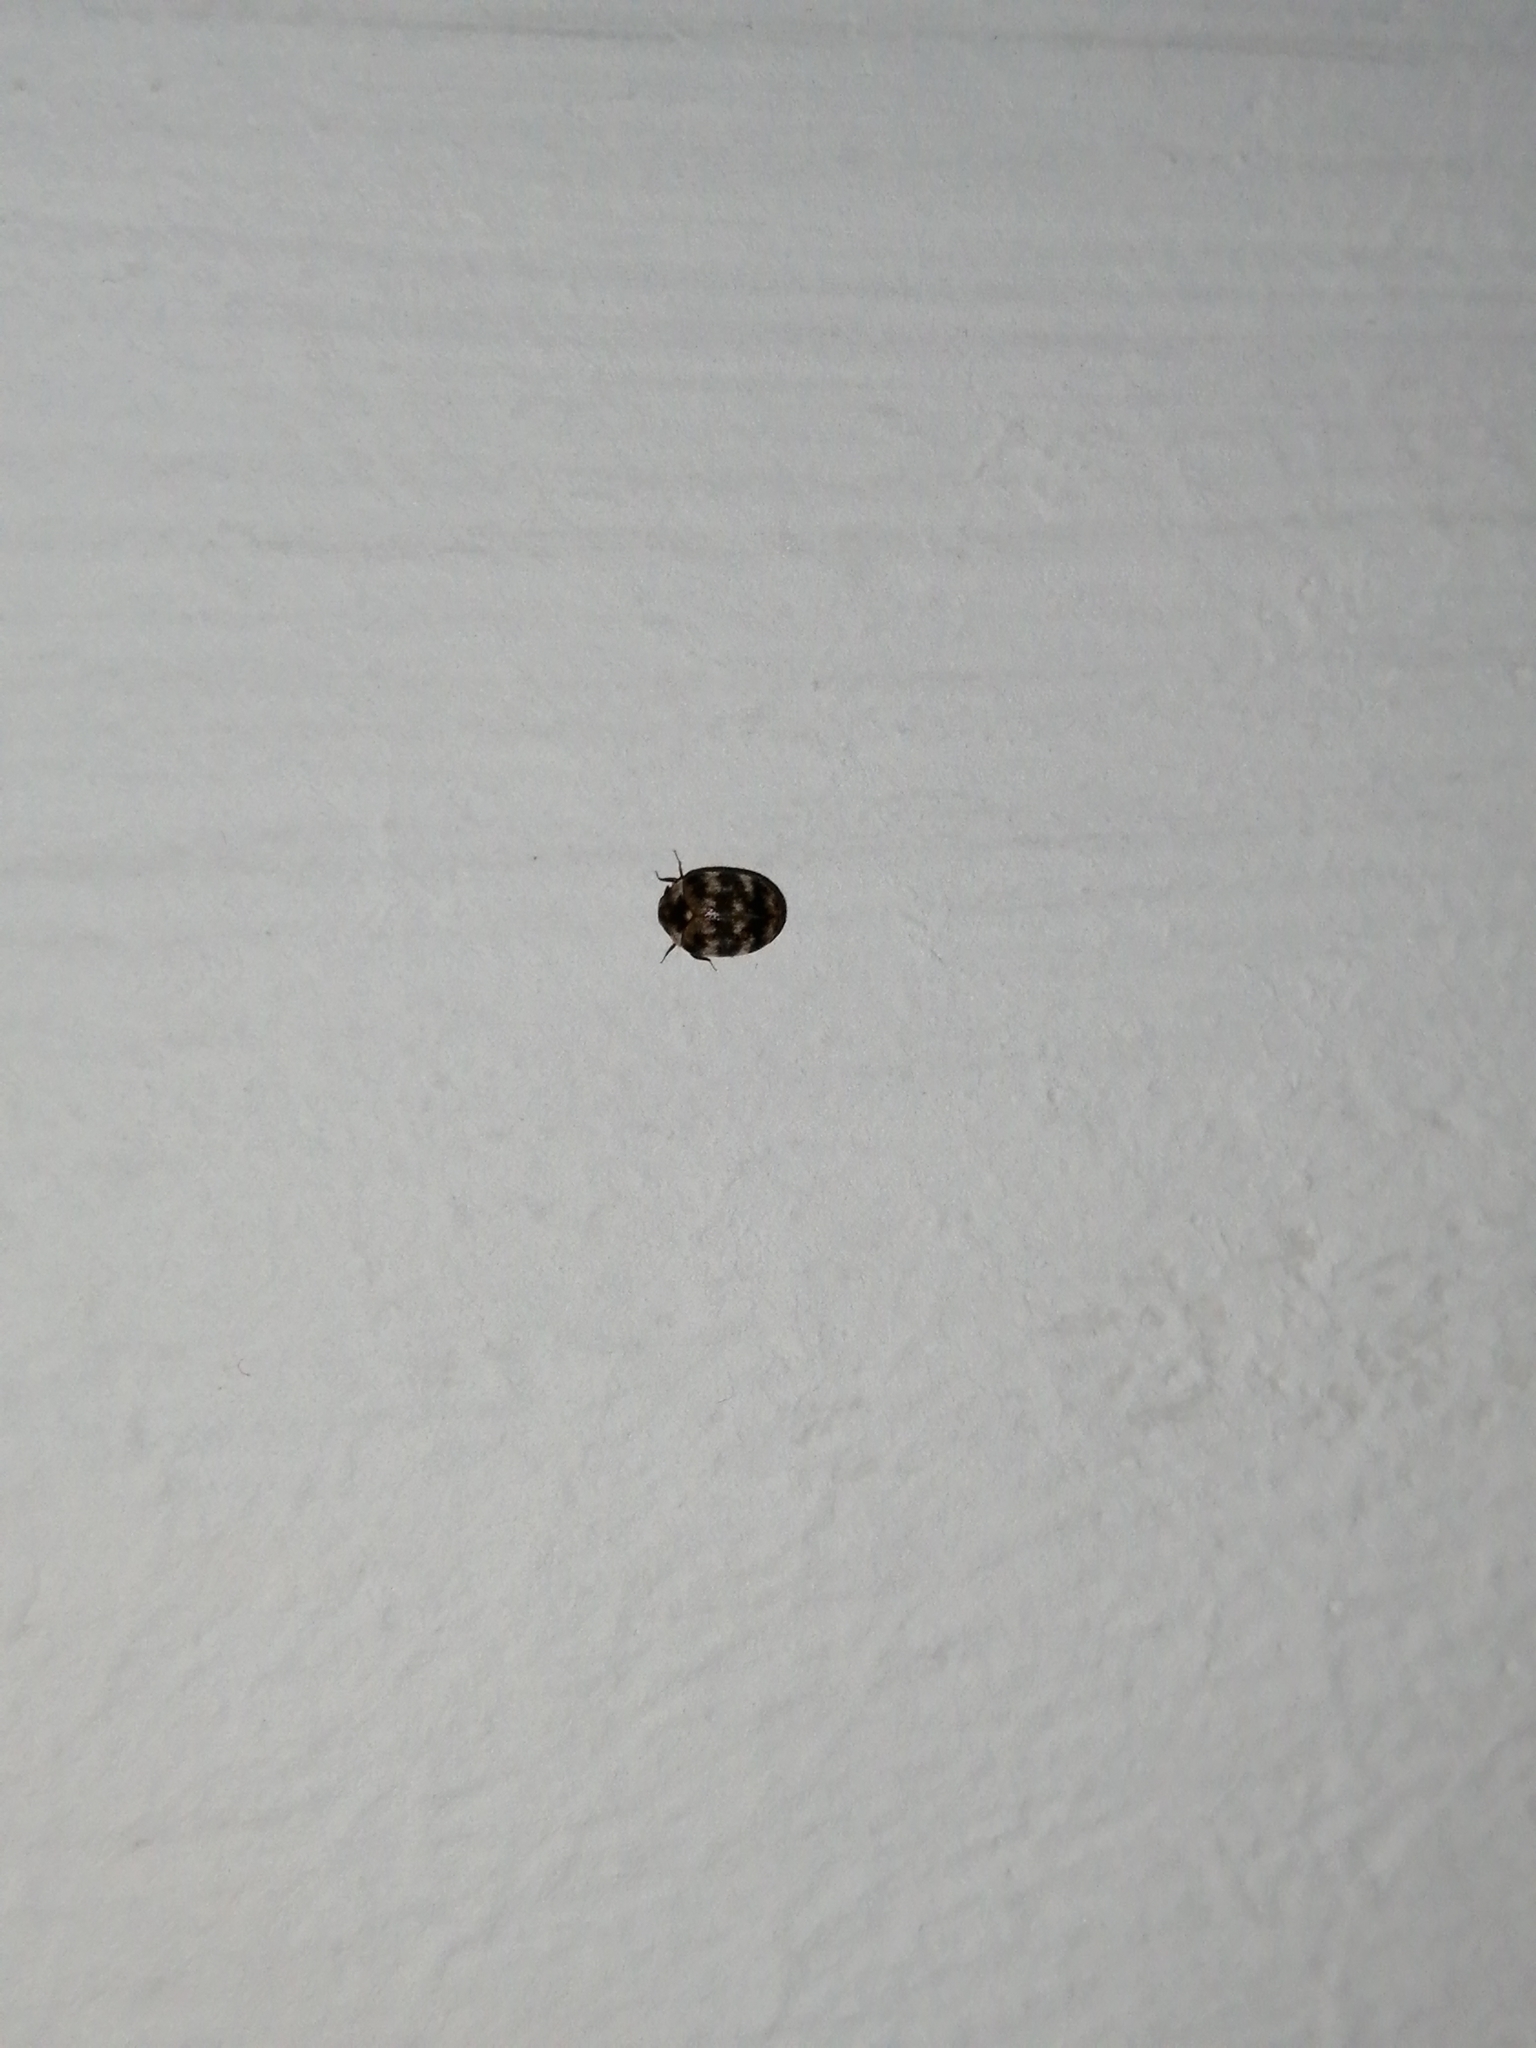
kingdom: Animalia
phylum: Arthropoda
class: Insecta
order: Coleoptera
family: Dermestidae
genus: Anthrenus
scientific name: Anthrenus verbasci
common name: Varied carpet beetle
